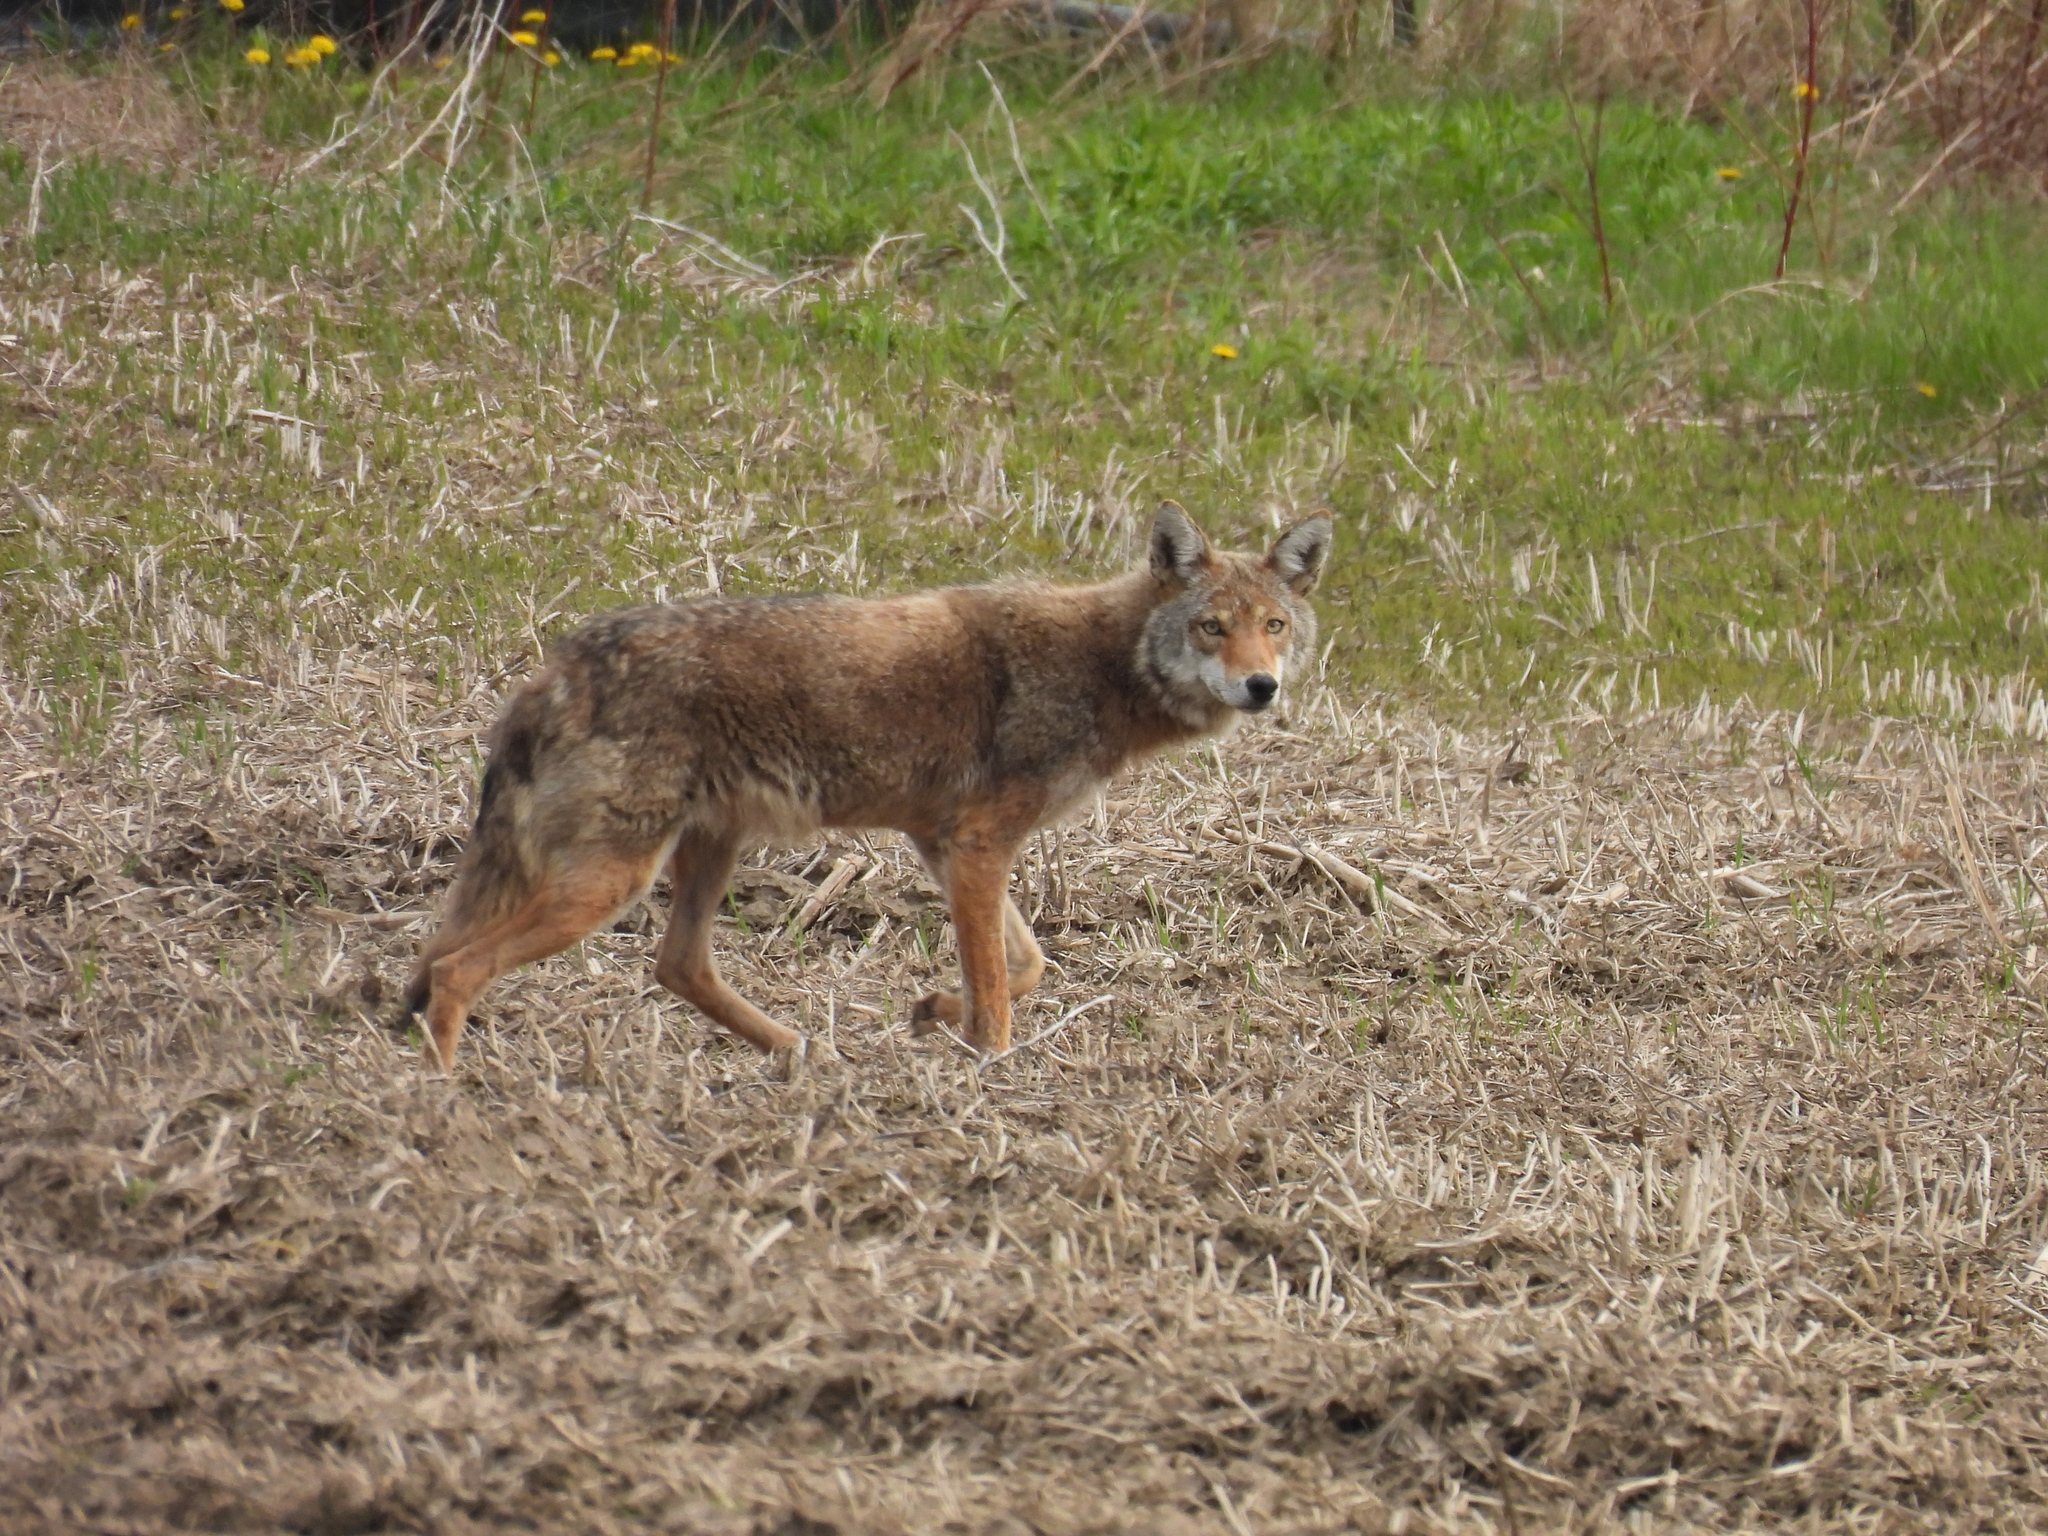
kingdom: Animalia
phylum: Chordata
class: Mammalia
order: Carnivora
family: Canidae
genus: Canis
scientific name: Canis latrans
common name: Coyote
